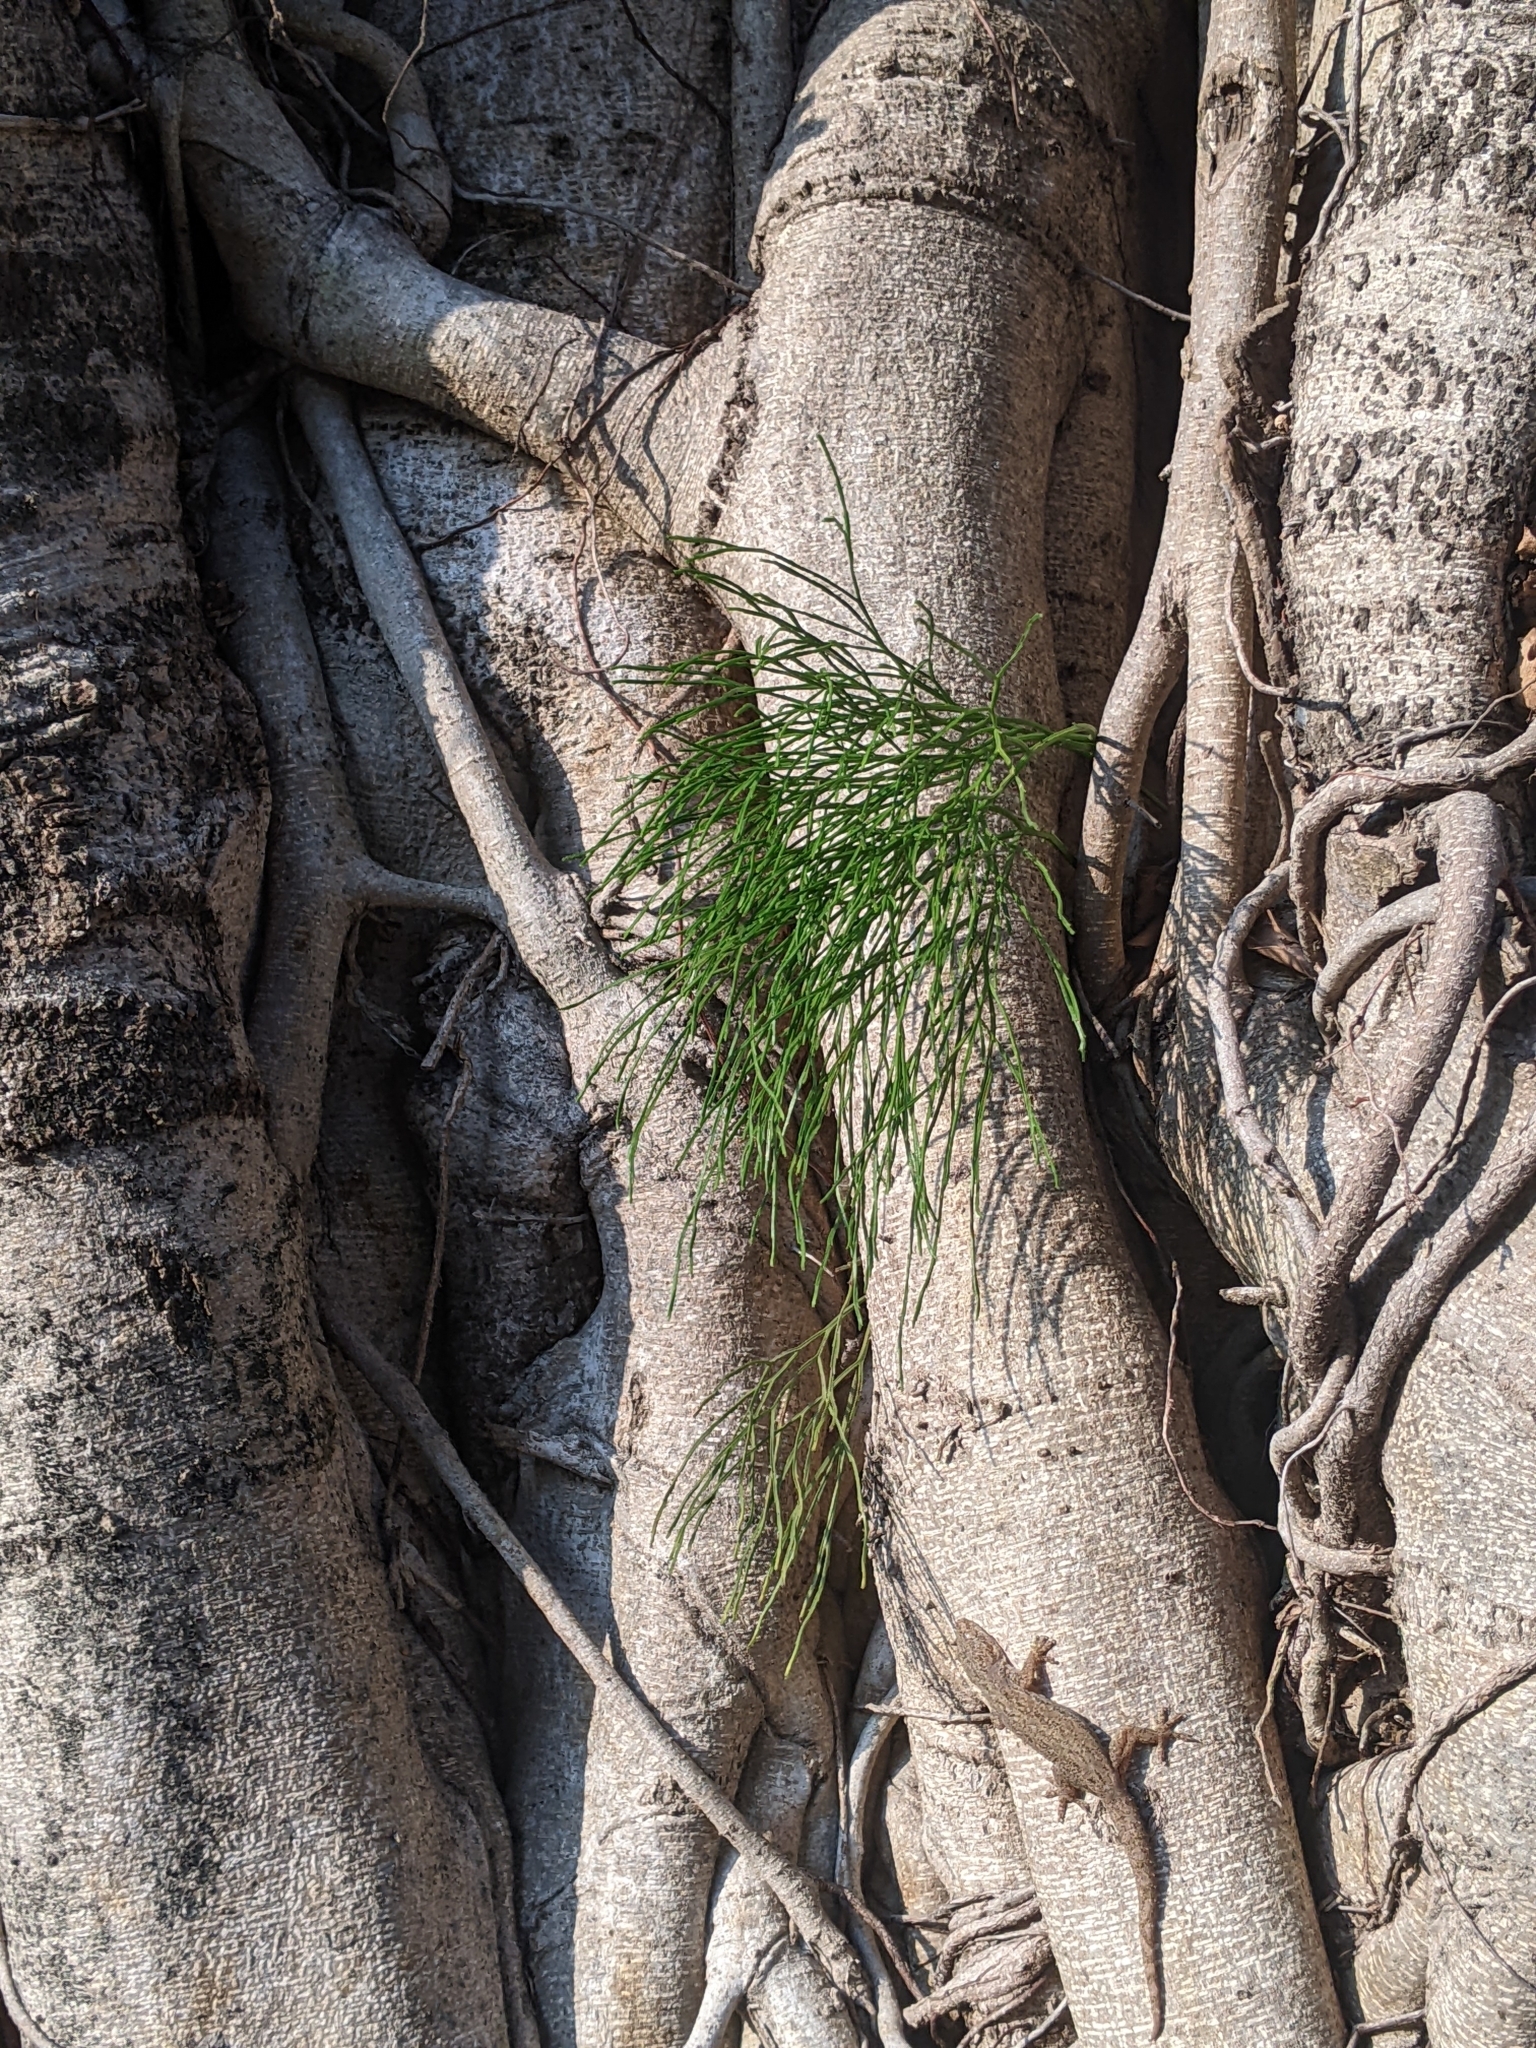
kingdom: Plantae
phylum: Tracheophyta
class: Polypodiopsida
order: Psilotales
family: Psilotaceae
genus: Psilotum
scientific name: Psilotum nudum
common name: Skeleton fork fern
